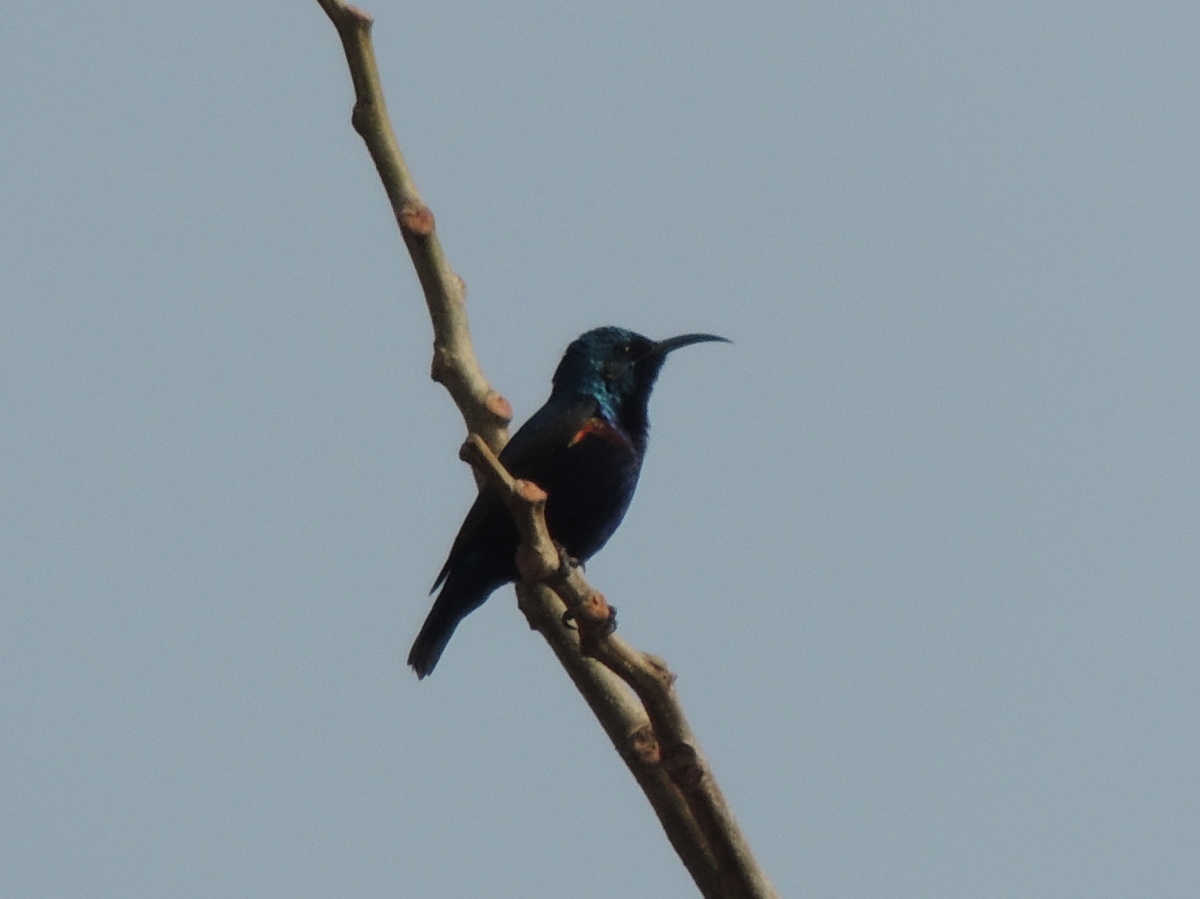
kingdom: Animalia
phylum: Chordata
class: Aves
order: Passeriformes
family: Nectariniidae
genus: Cinnyris
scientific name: Cinnyris asiaticus
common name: Purple sunbird
